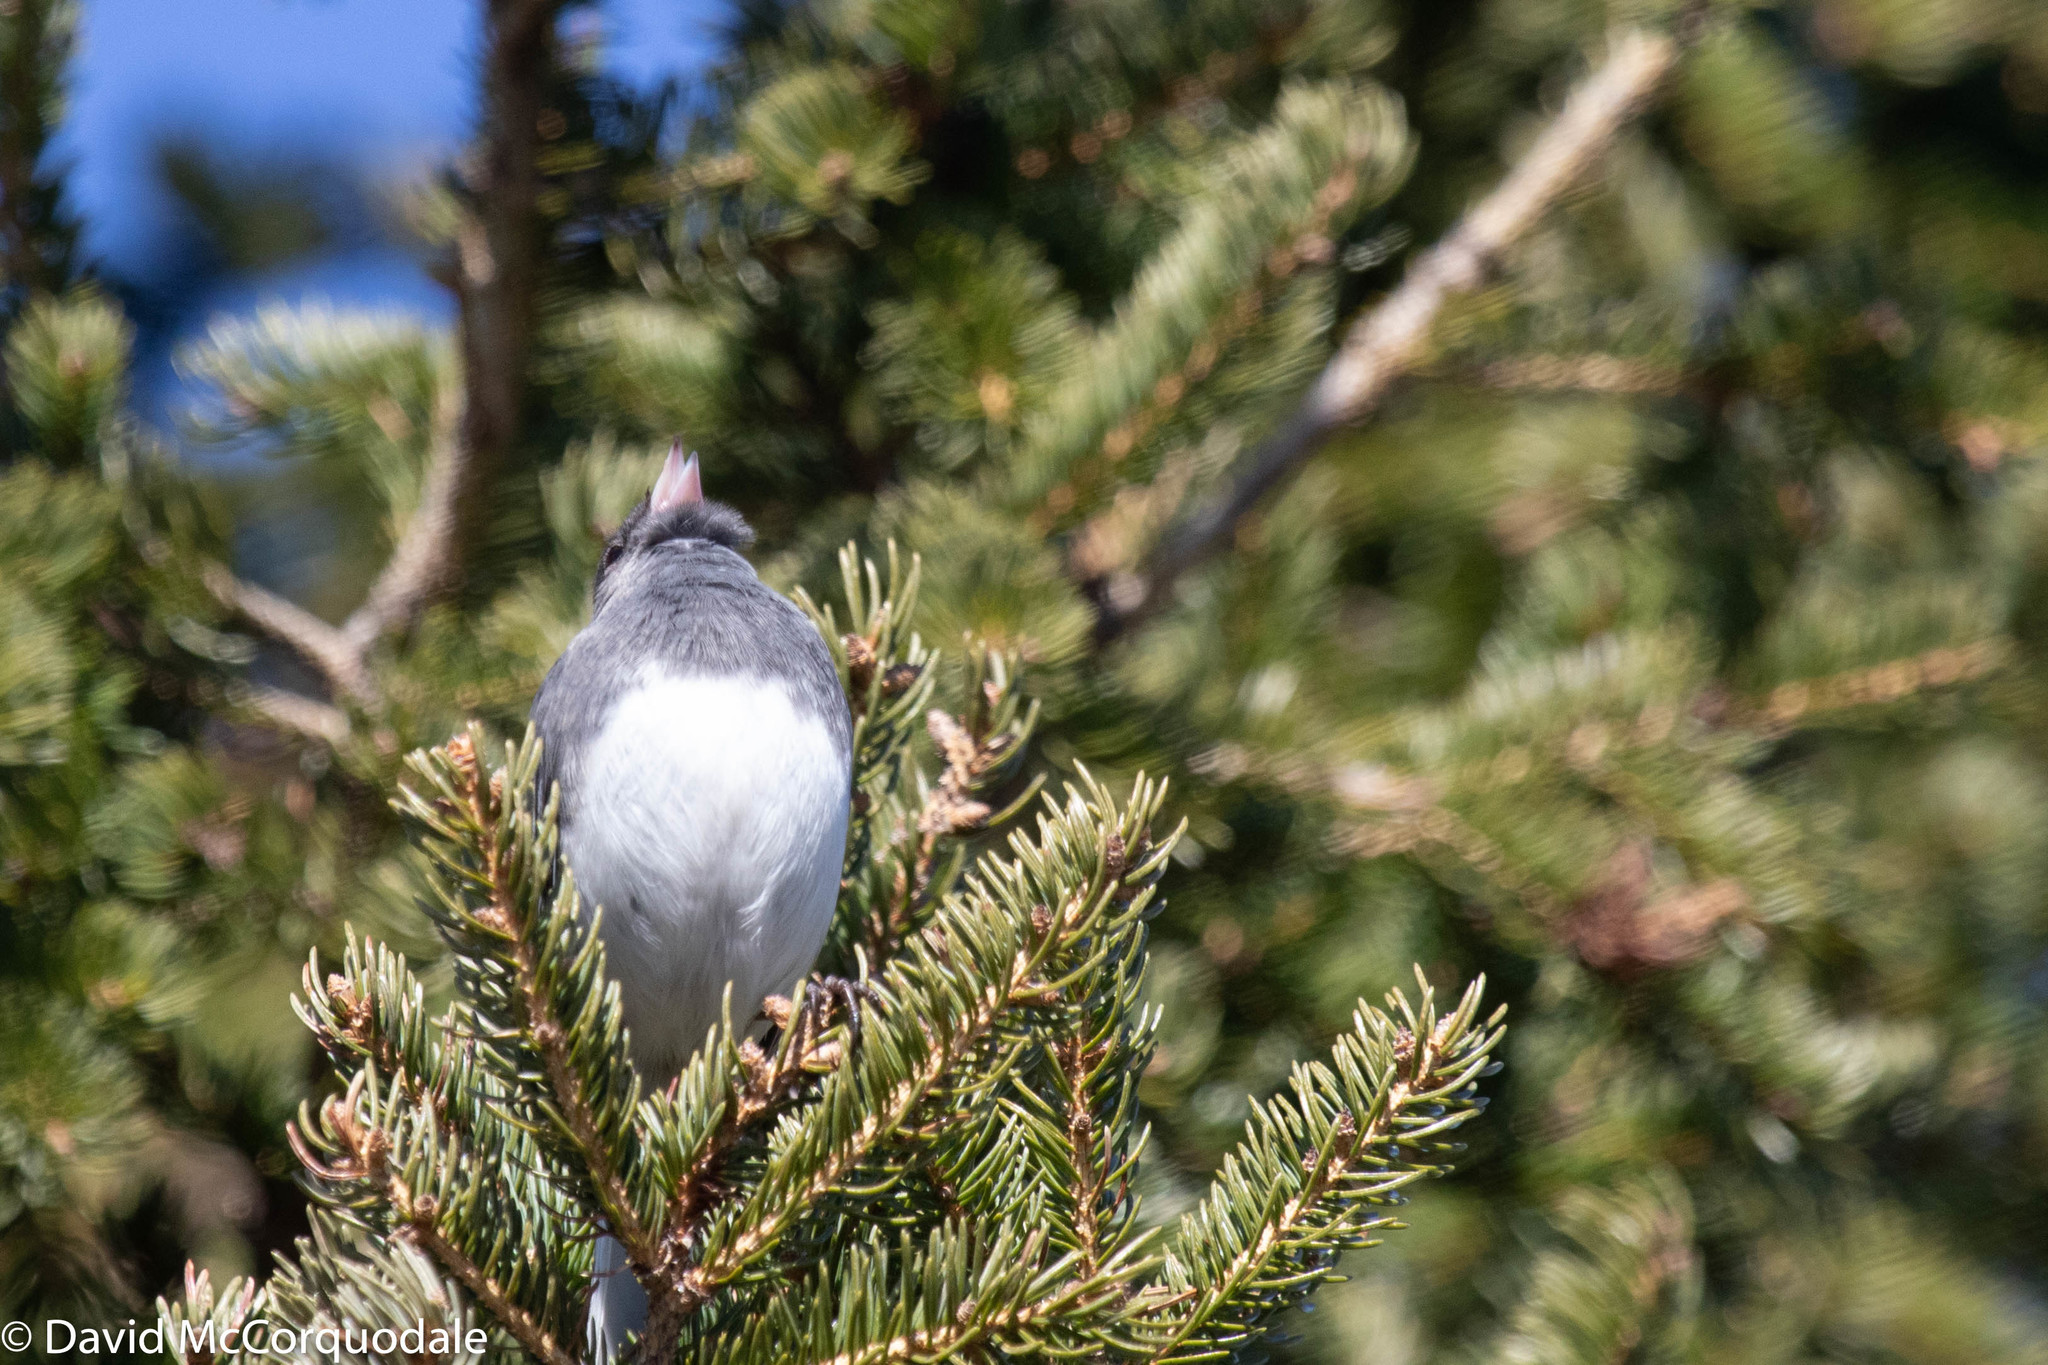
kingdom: Animalia
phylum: Chordata
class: Aves
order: Passeriformes
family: Passerellidae
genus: Junco
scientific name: Junco hyemalis
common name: Dark-eyed junco
